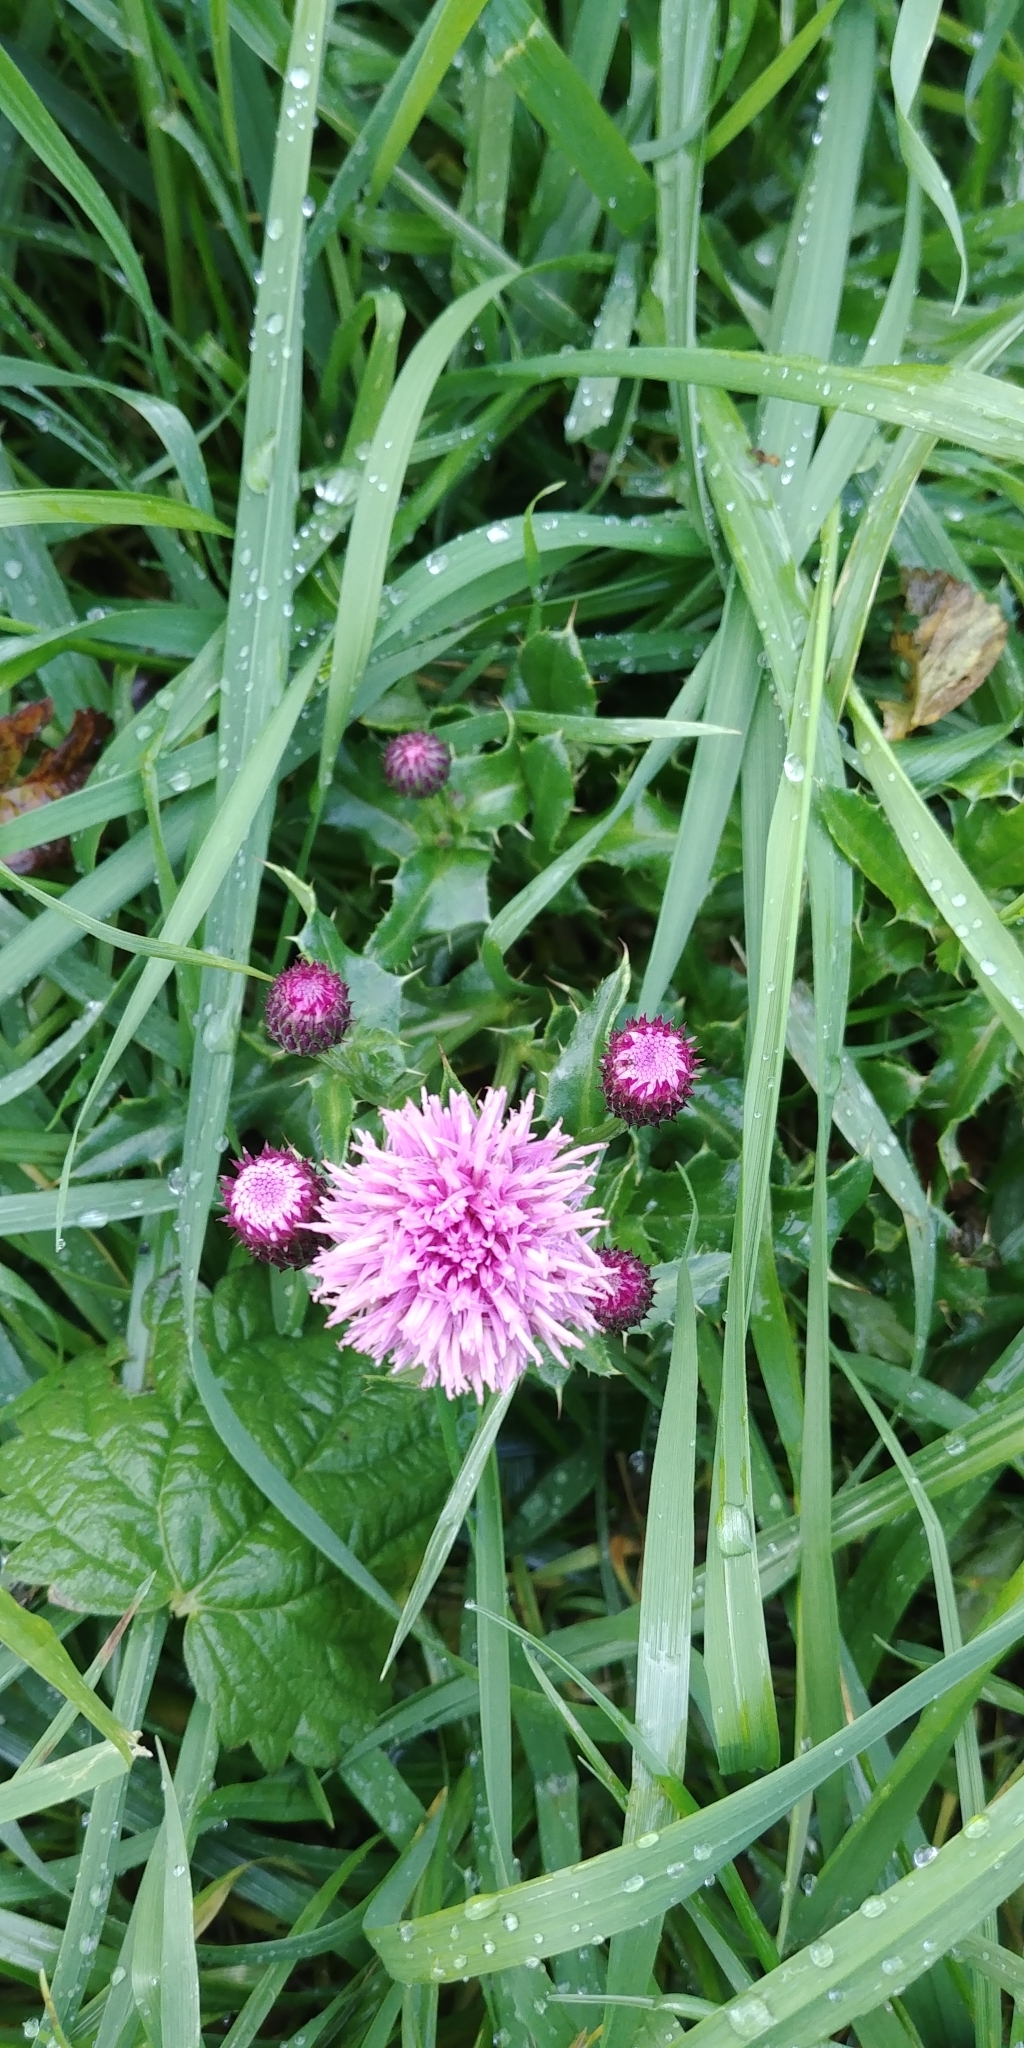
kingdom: Plantae
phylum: Tracheophyta
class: Magnoliopsida
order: Asterales
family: Asteraceae
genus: Cirsium
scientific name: Cirsium arvense
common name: Creeping thistle
